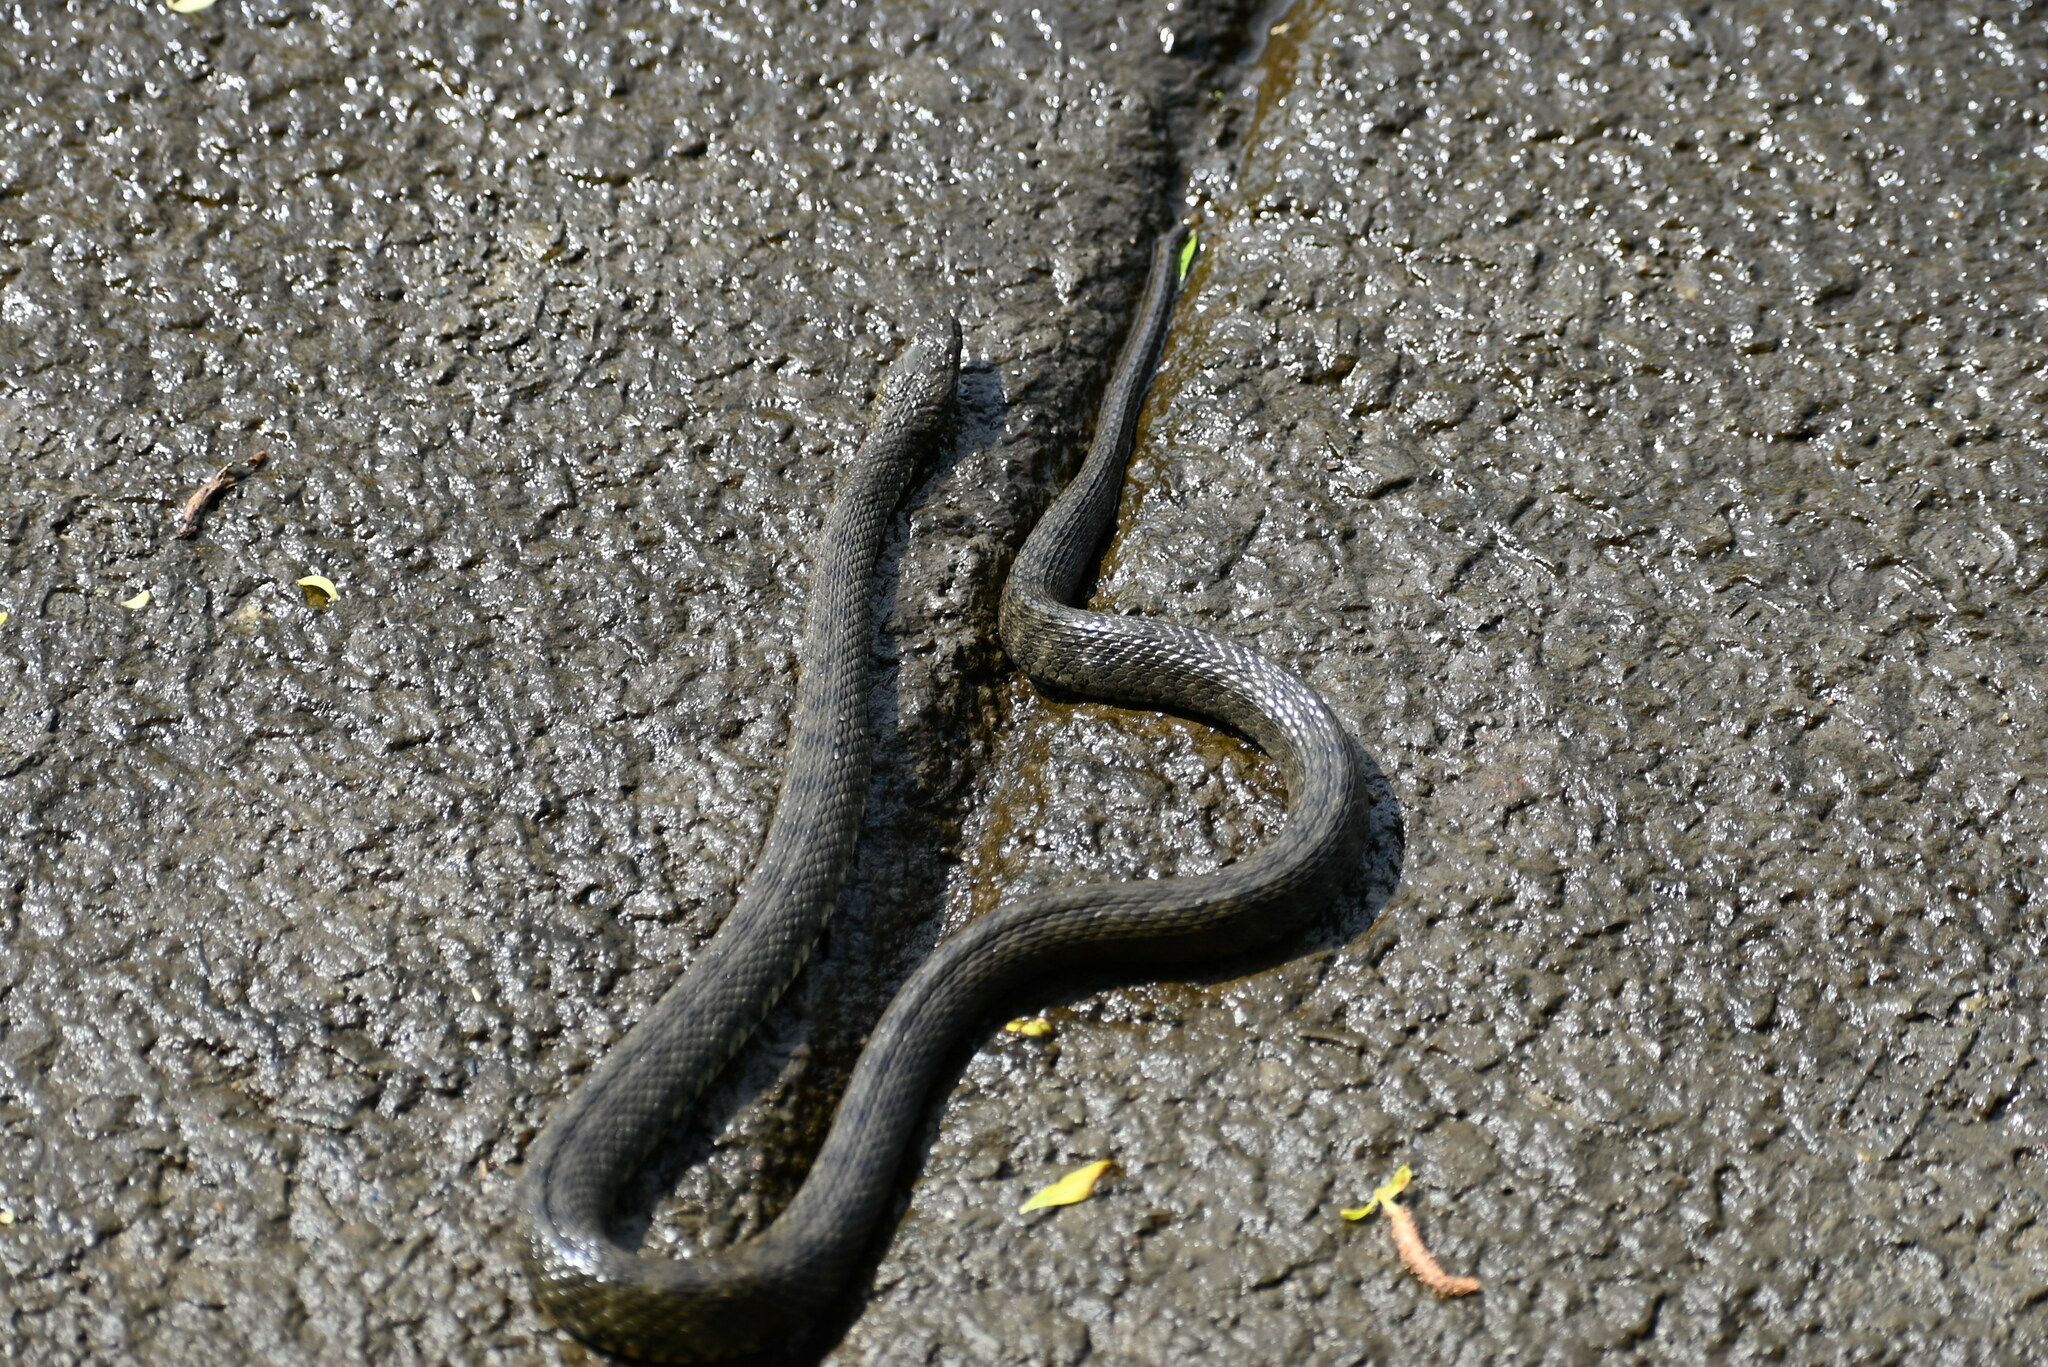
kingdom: Animalia
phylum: Chordata
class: Squamata
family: Colubridae
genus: Natrix
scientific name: Natrix tessellata
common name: Dice snake
